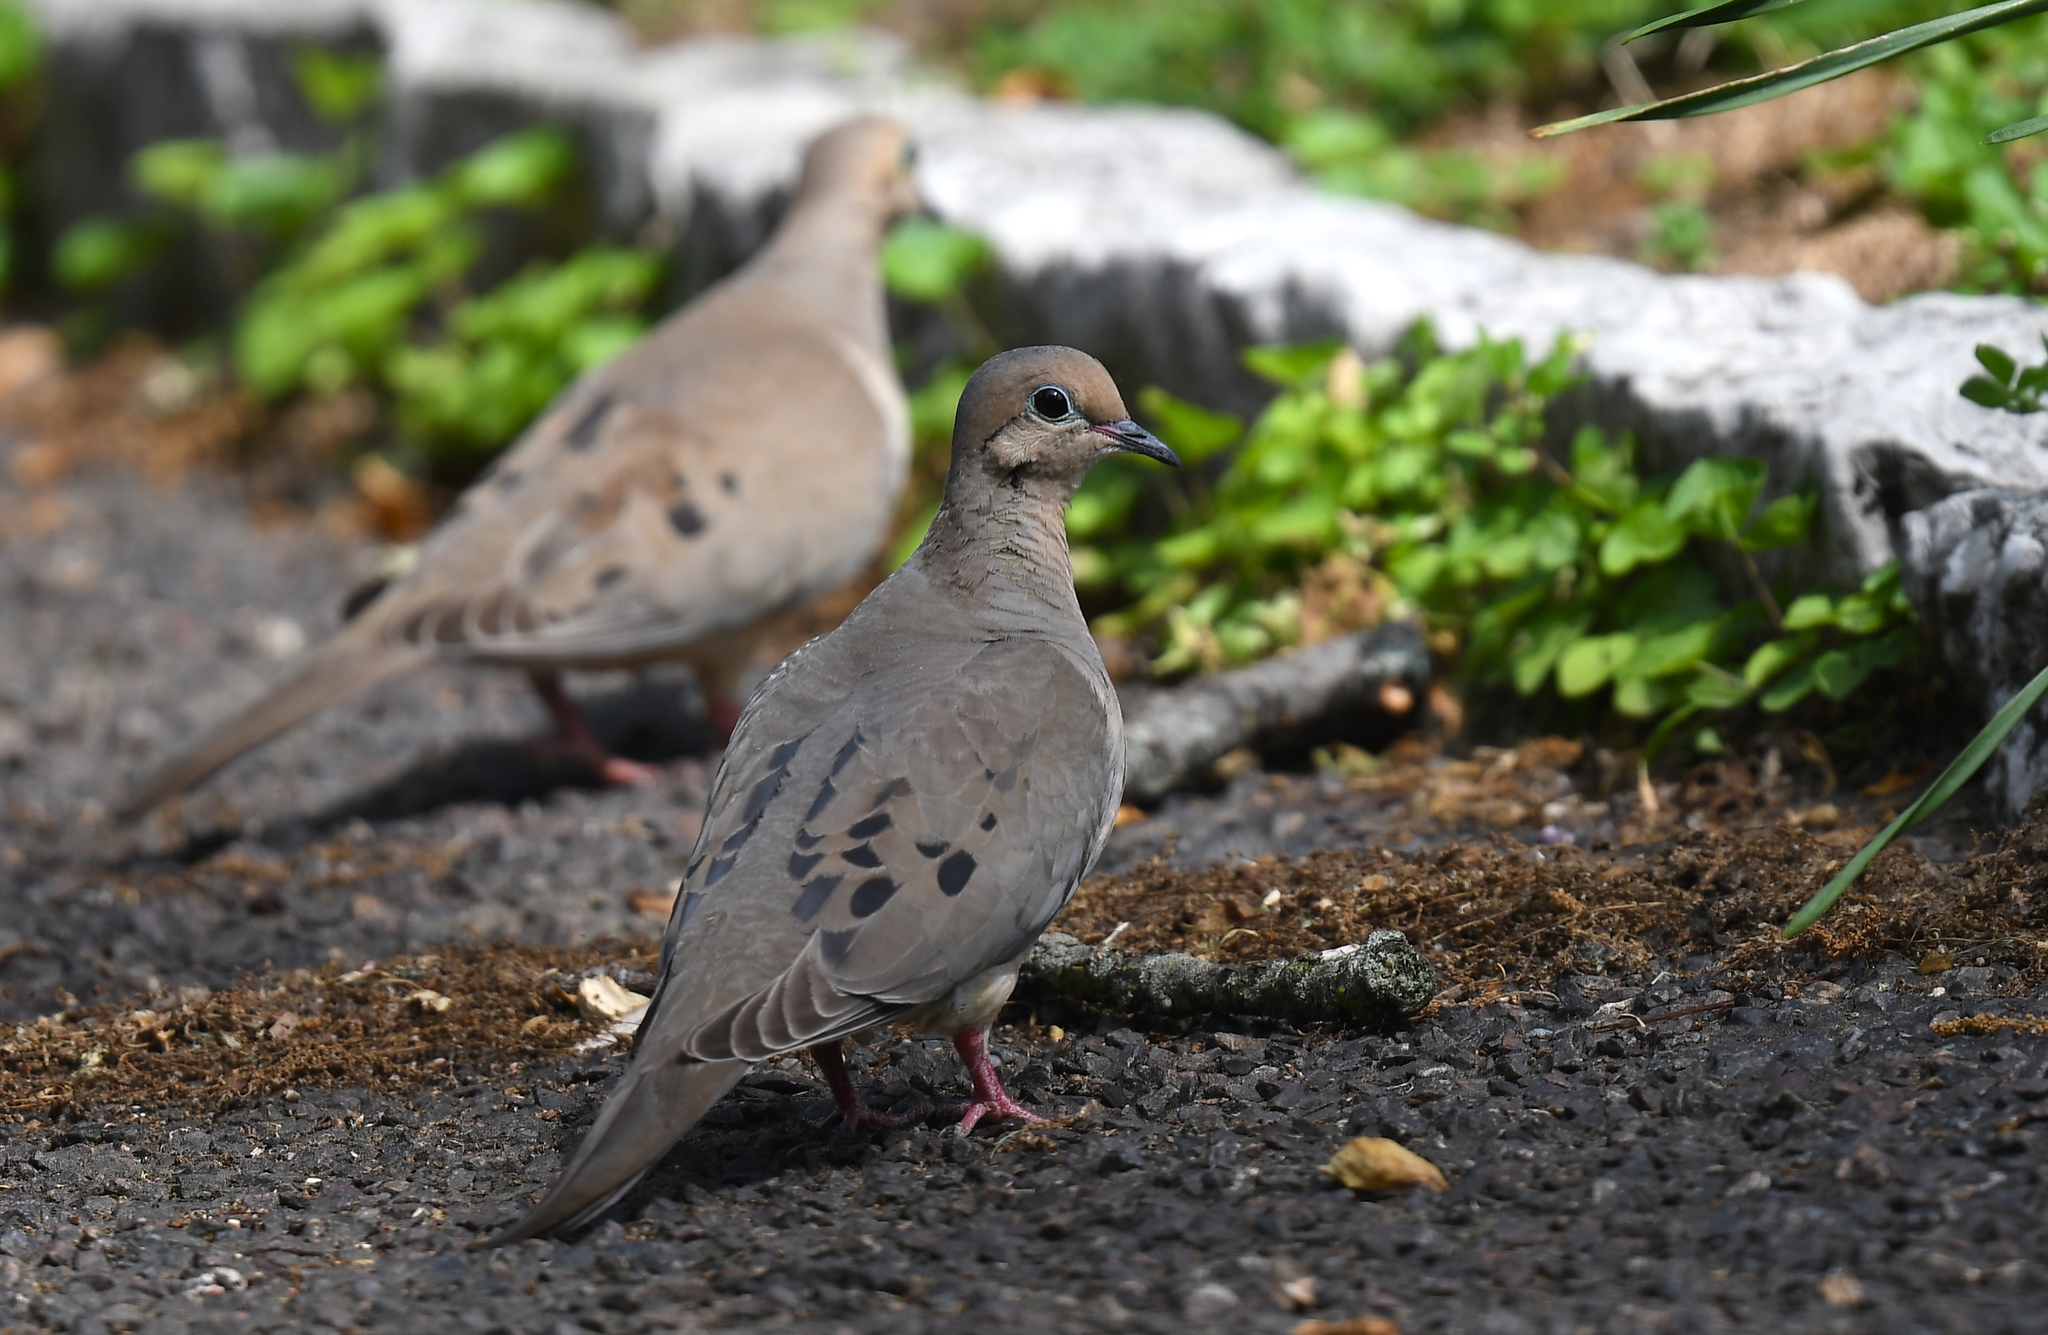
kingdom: Animalia
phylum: Chordata
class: Aves
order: Columbiformes
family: Columbidae
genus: Zenaida
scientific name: Zenaida macroura
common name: Mourning dove
